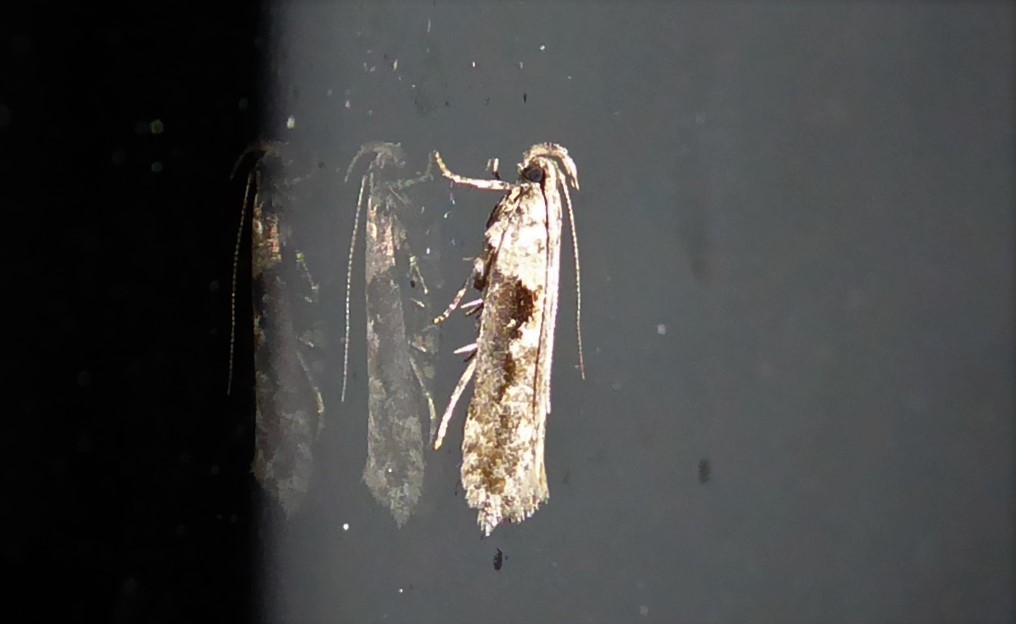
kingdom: Animalia
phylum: Arthropoda
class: Insecta
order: Lepidoptera
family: Gelechiidae
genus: Symmetrischema
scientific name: Symmetrischema tangolias
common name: Moth
